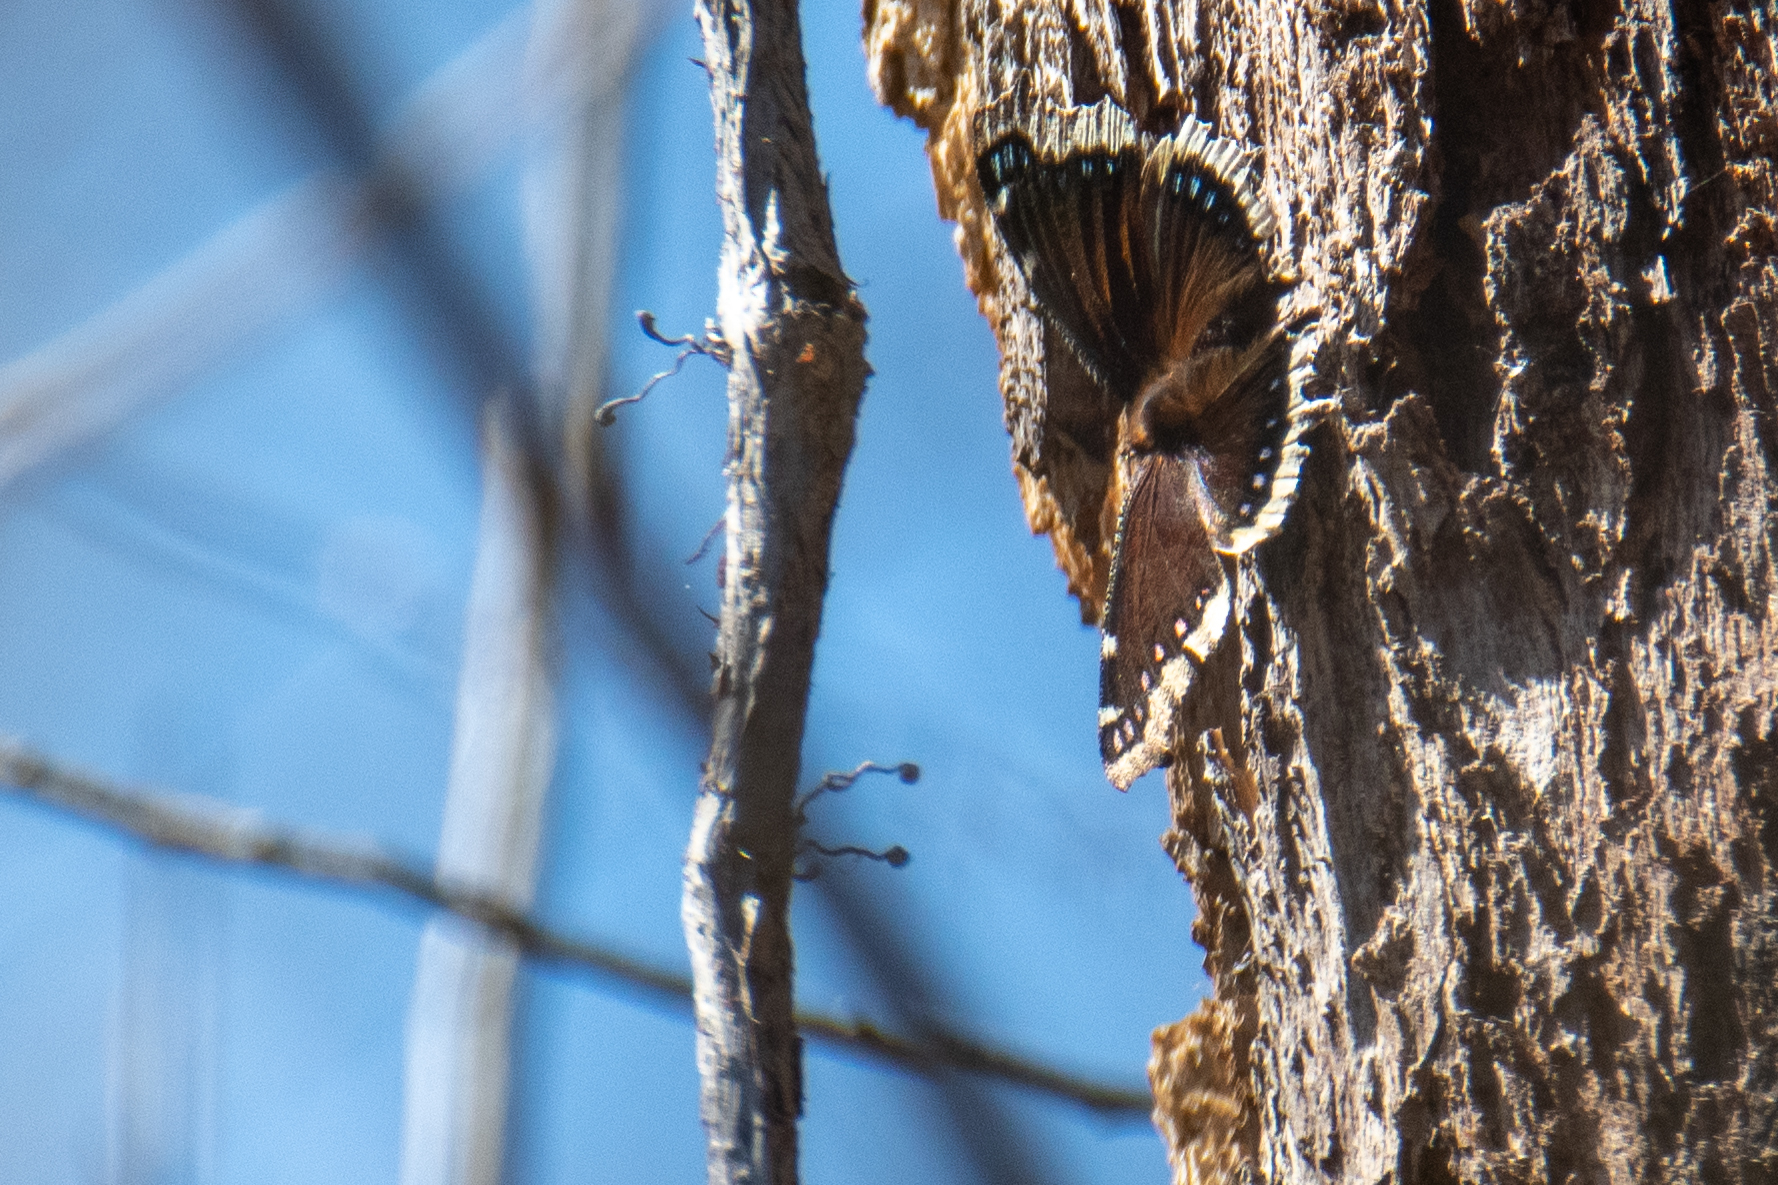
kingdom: Animalia
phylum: Arthropoda
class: Insecta
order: Lepidoptera
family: Nymphalidae
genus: Nymphalis
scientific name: Nymphalis antiopa
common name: Camberwell beauty
